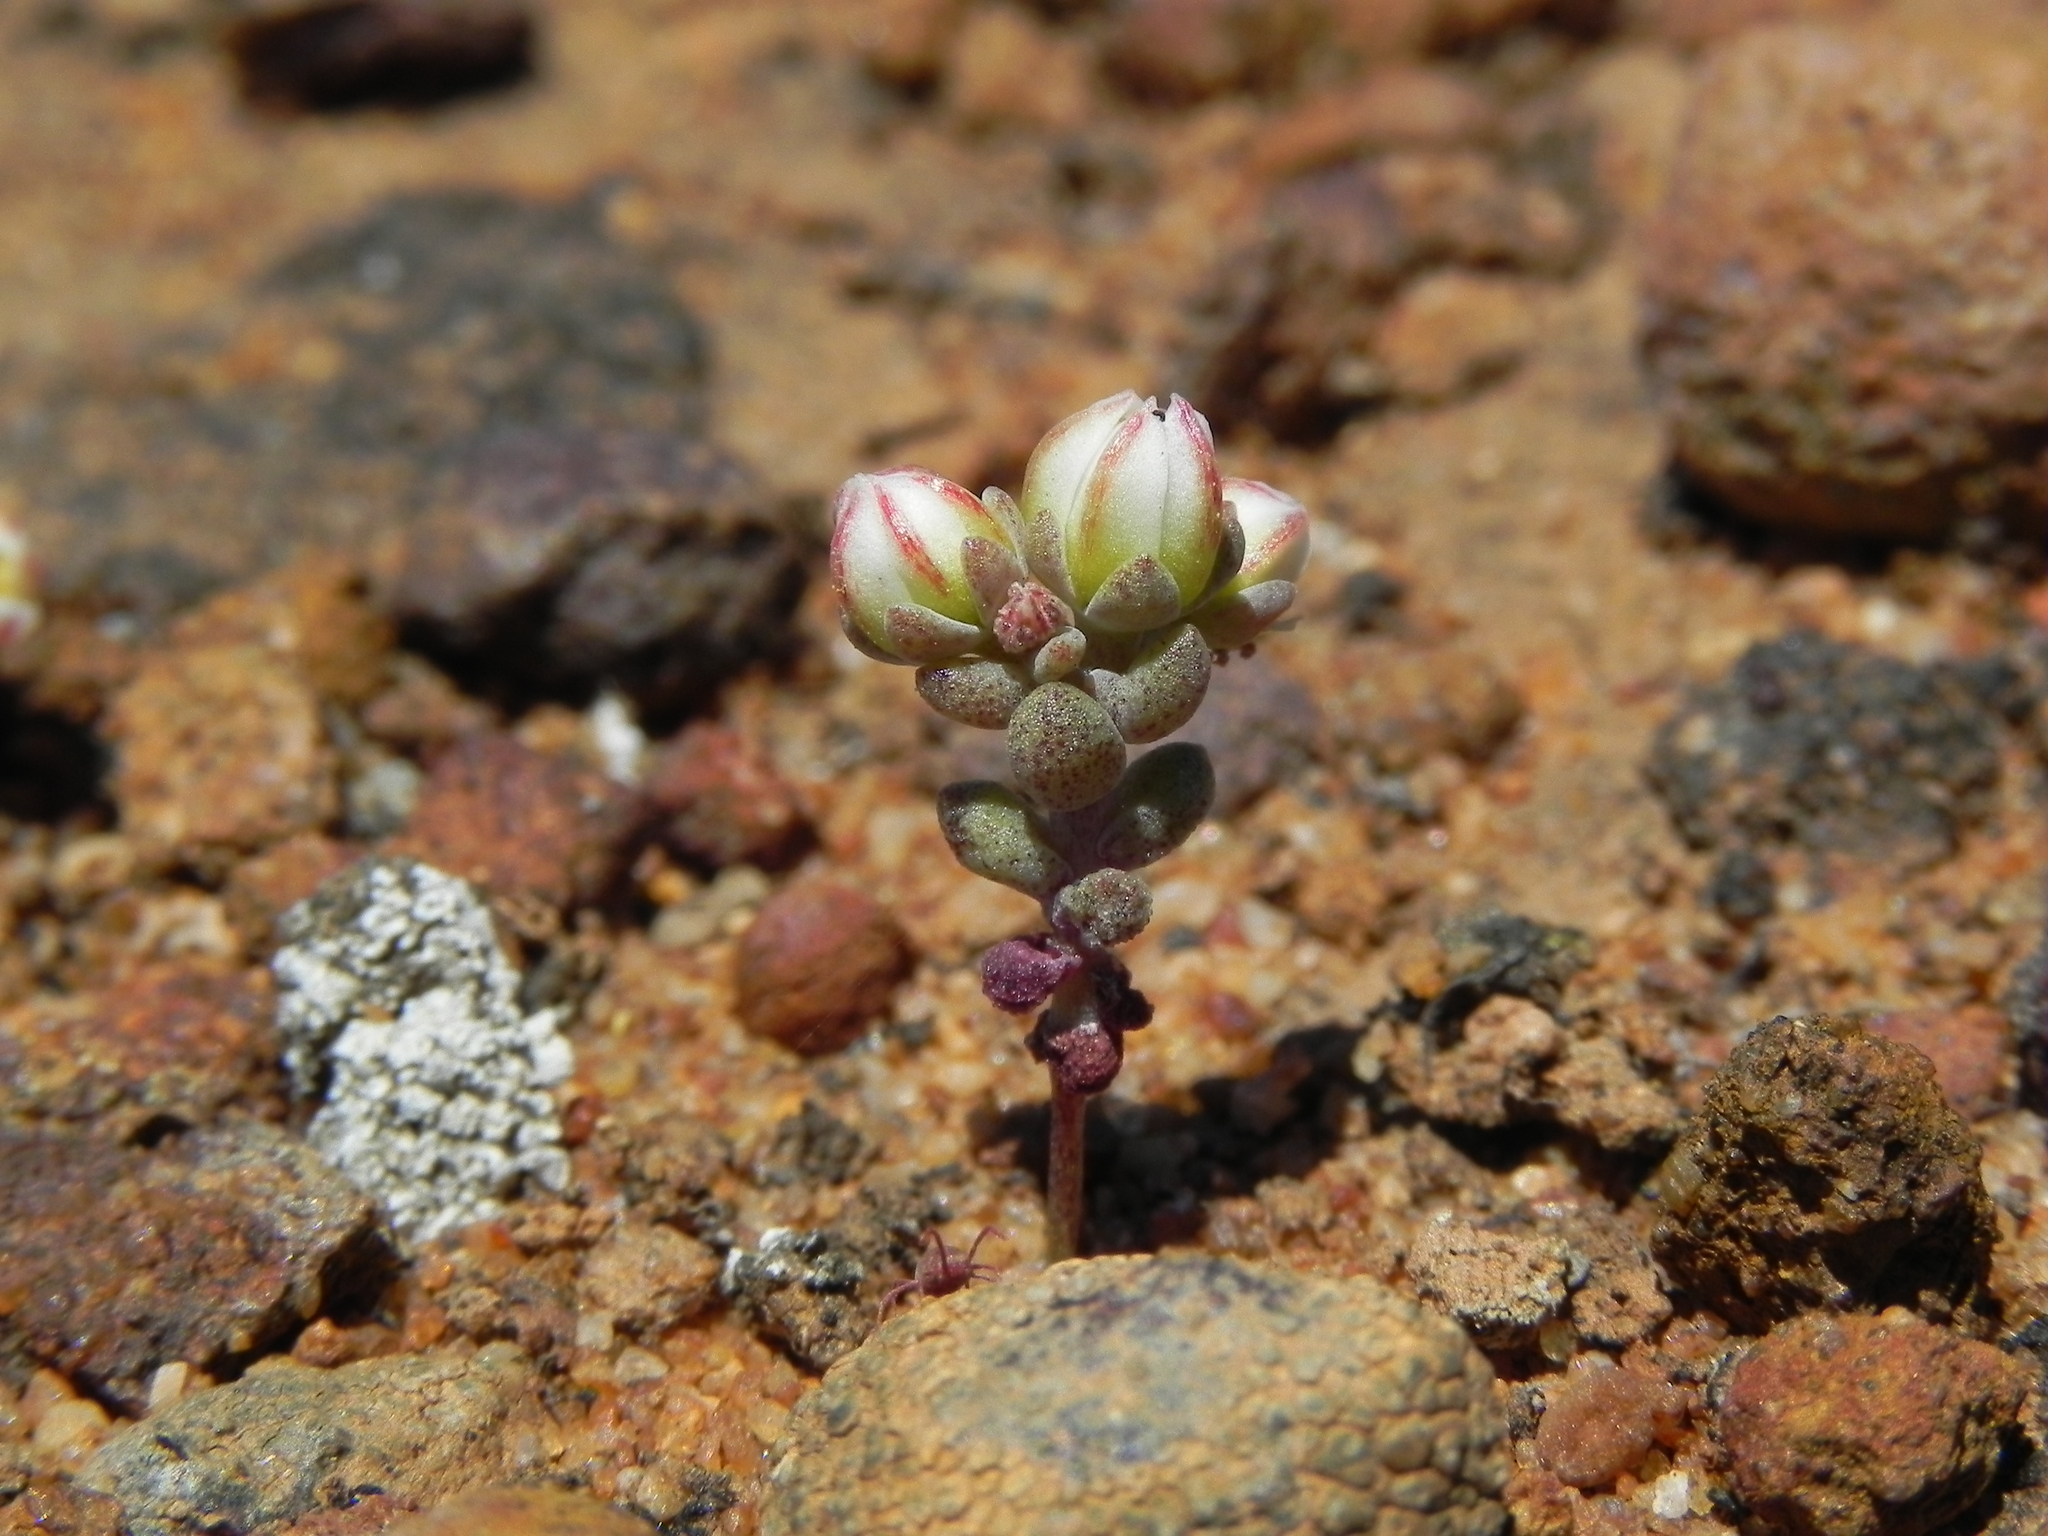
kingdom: Plantae
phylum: Tracheophyta
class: Magnoliopsida
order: Saxifragales
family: Crassulaceae
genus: Dudleya
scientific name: Dudleya blochmaniae
